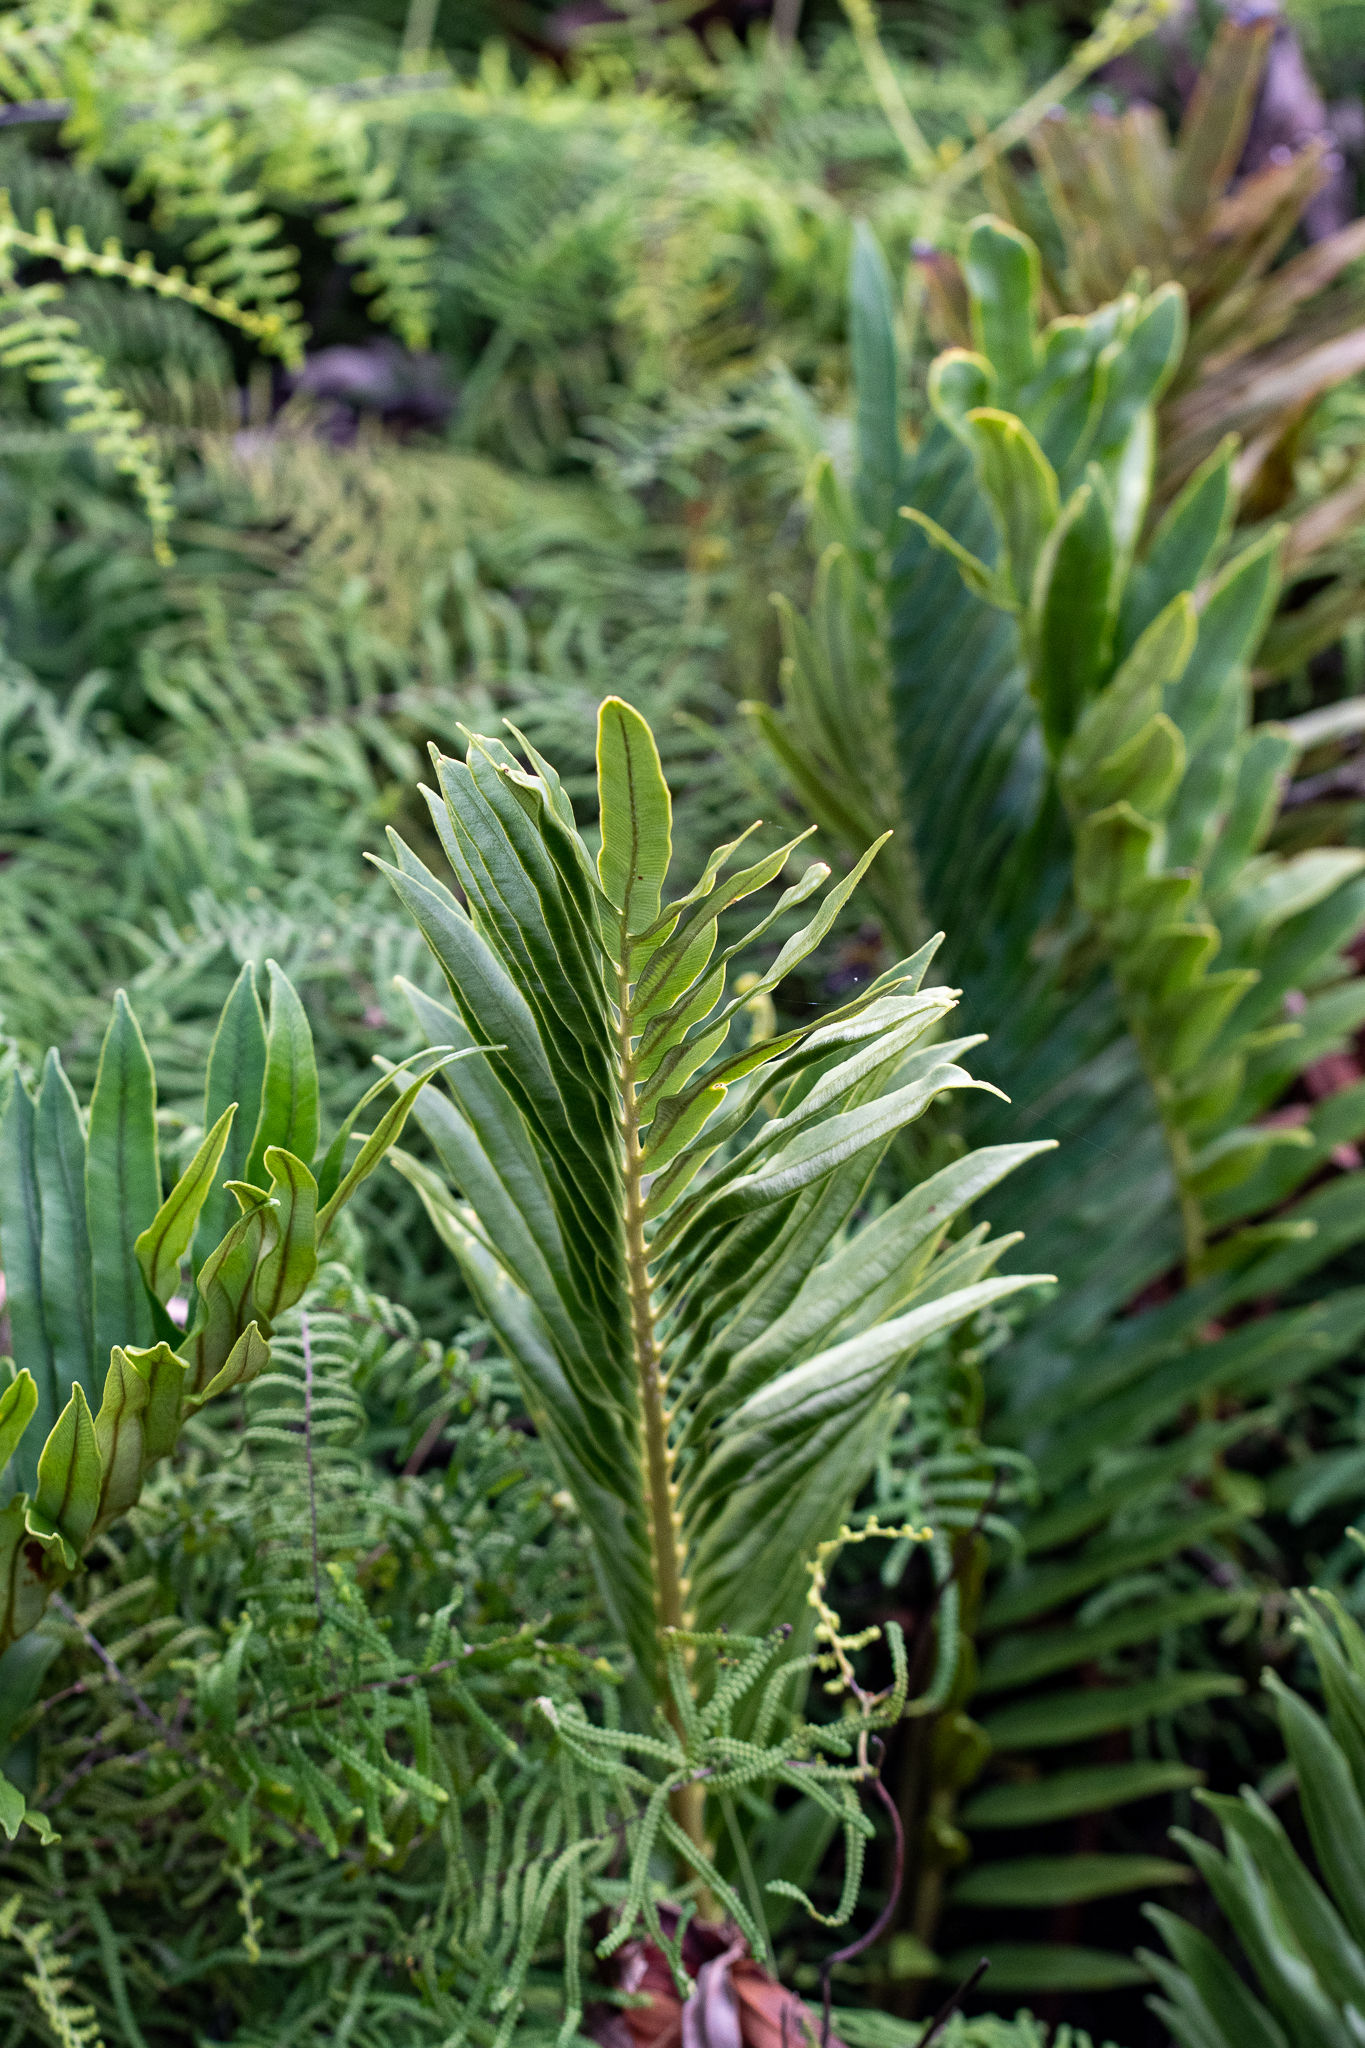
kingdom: Plantae
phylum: Tracheophyta
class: Polypodiopsida
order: Polypodiales
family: Blechnaceae
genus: Lomariocycas
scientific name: Lomariocycas tabularis
